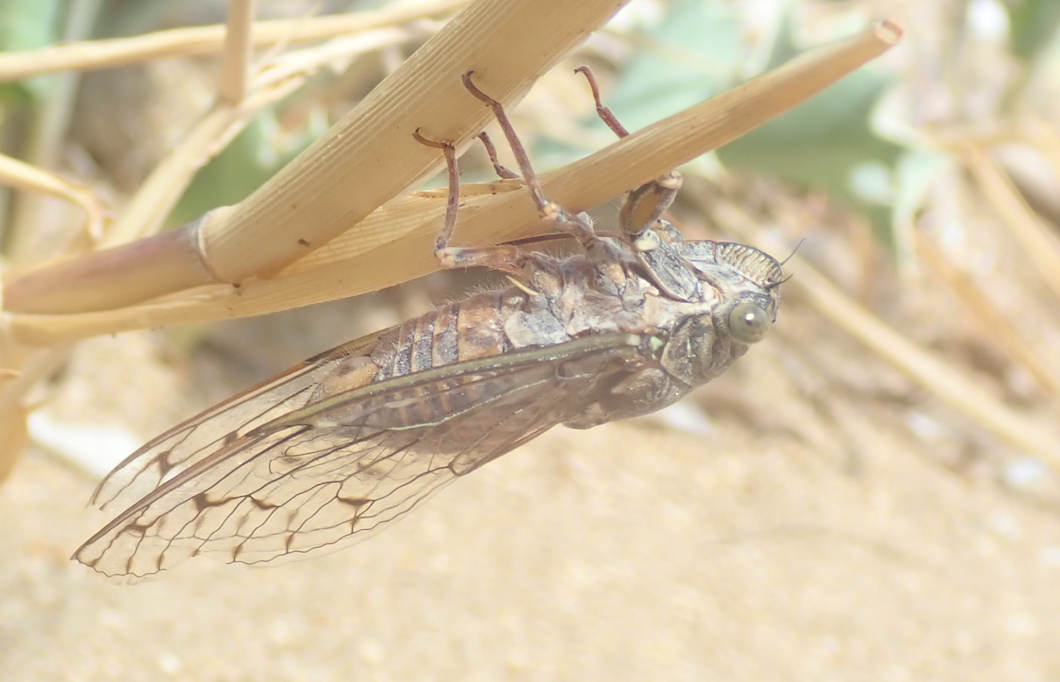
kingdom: Animalia
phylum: Arthropoda
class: Insecta
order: Hemiptera
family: Cicadidae
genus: Cicada
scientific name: Cicada orni
